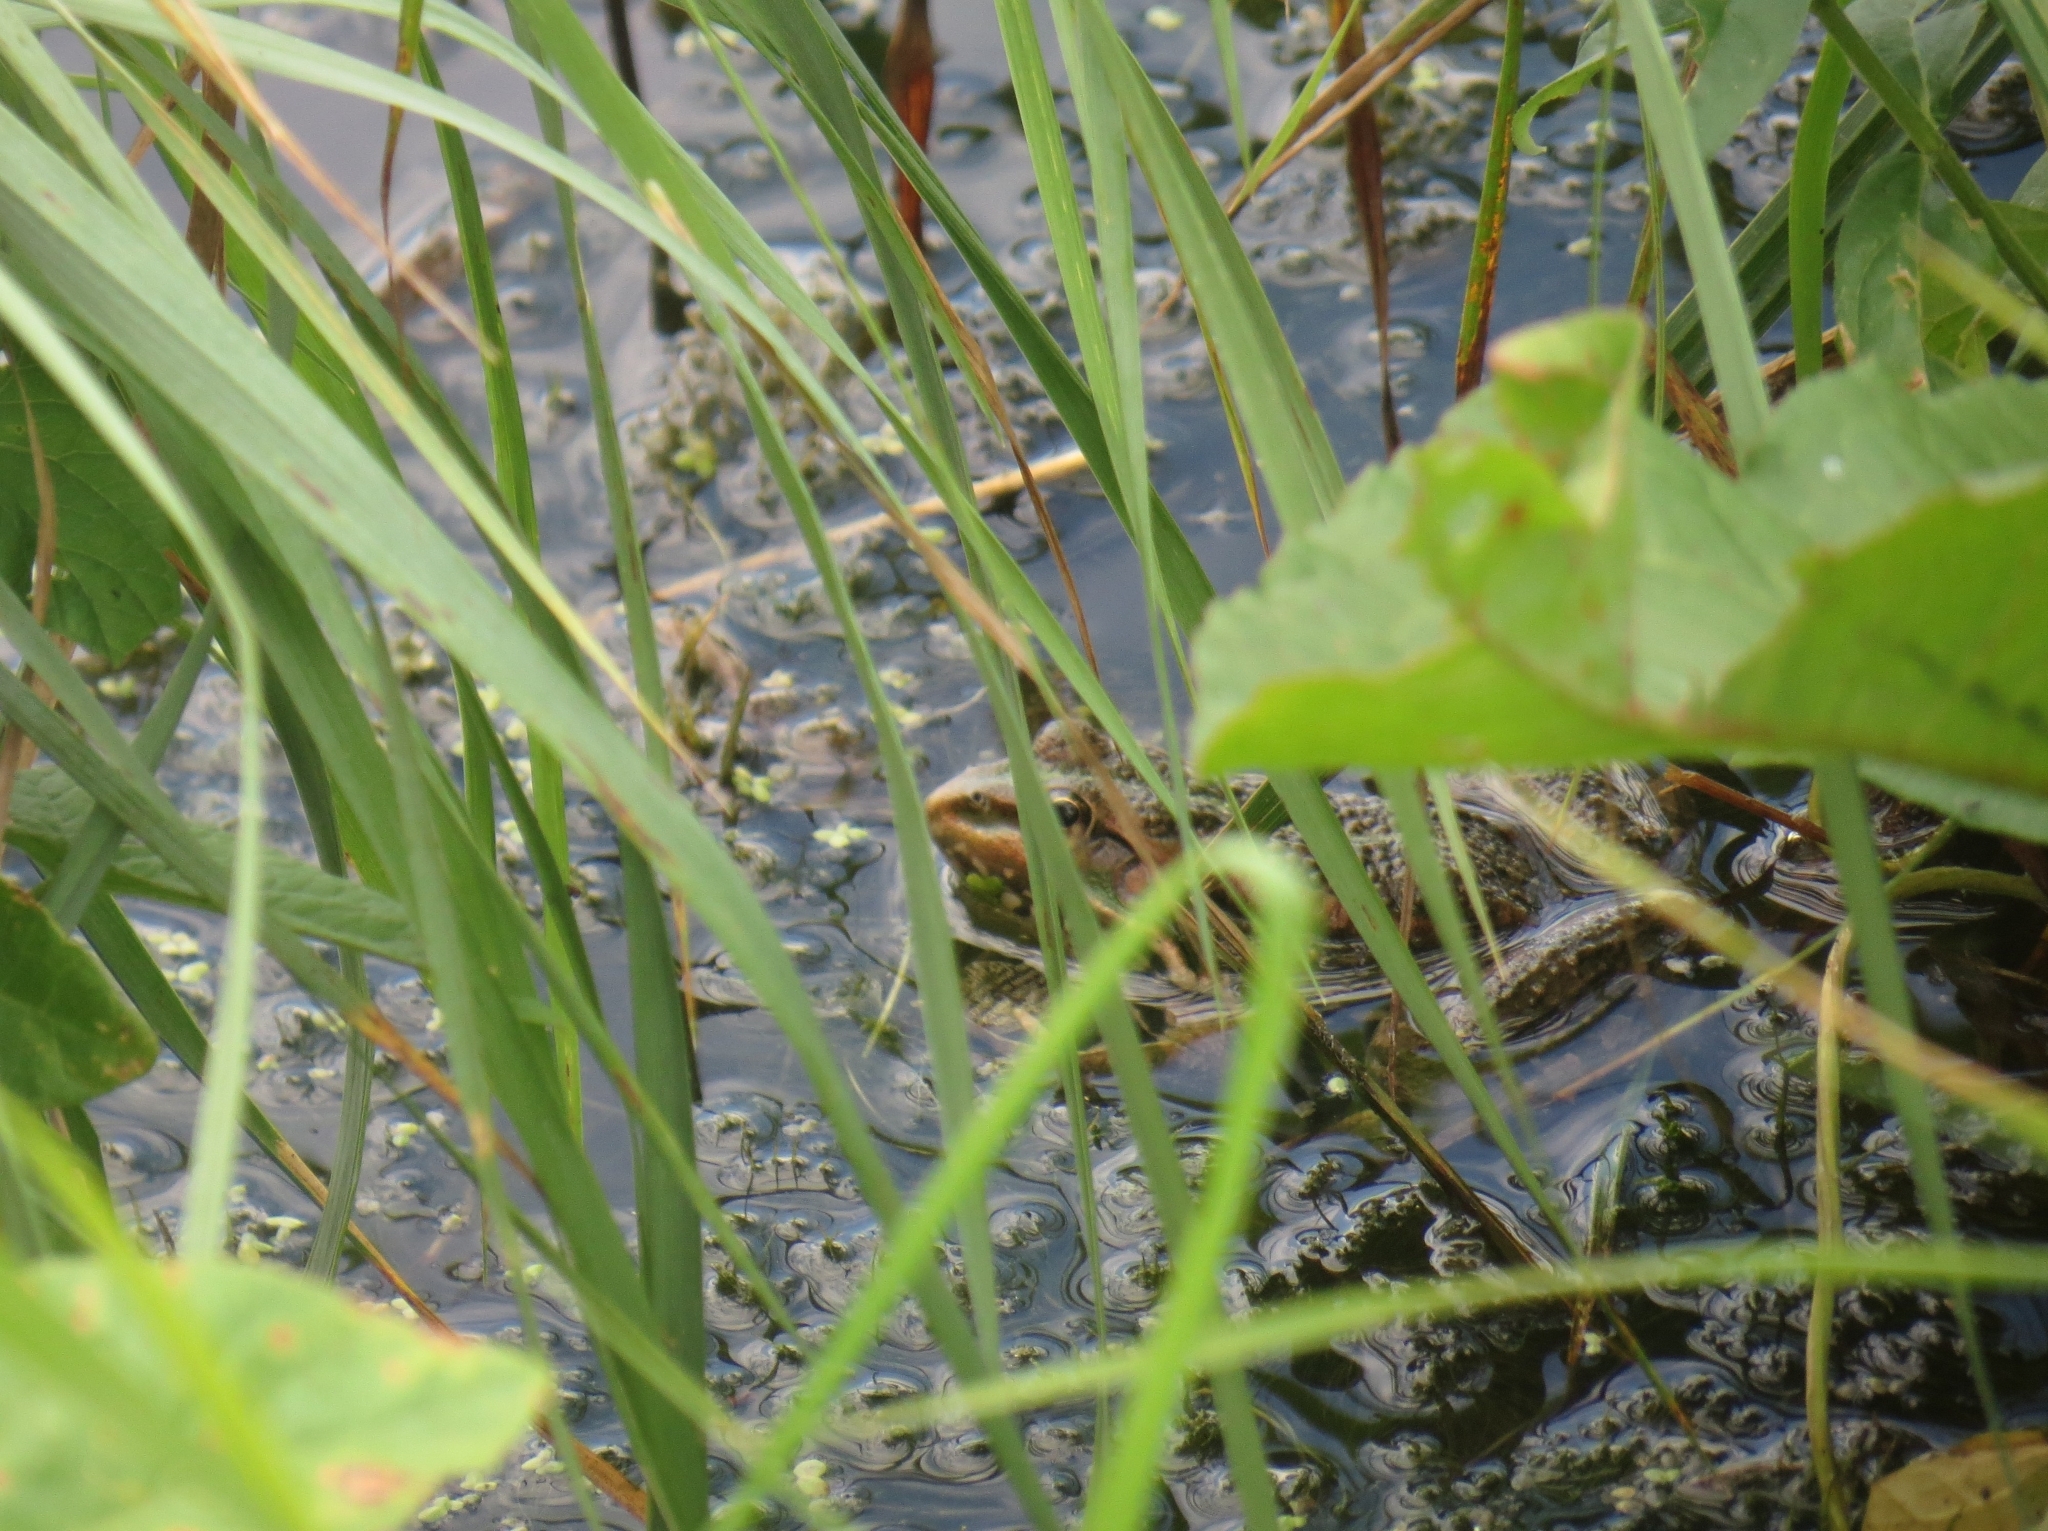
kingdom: Animalia
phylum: Chordata
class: Amphibia
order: Anura
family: Ranidae
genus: Pelophylax
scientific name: Pelophylax ridibundus
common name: Marsh frog
